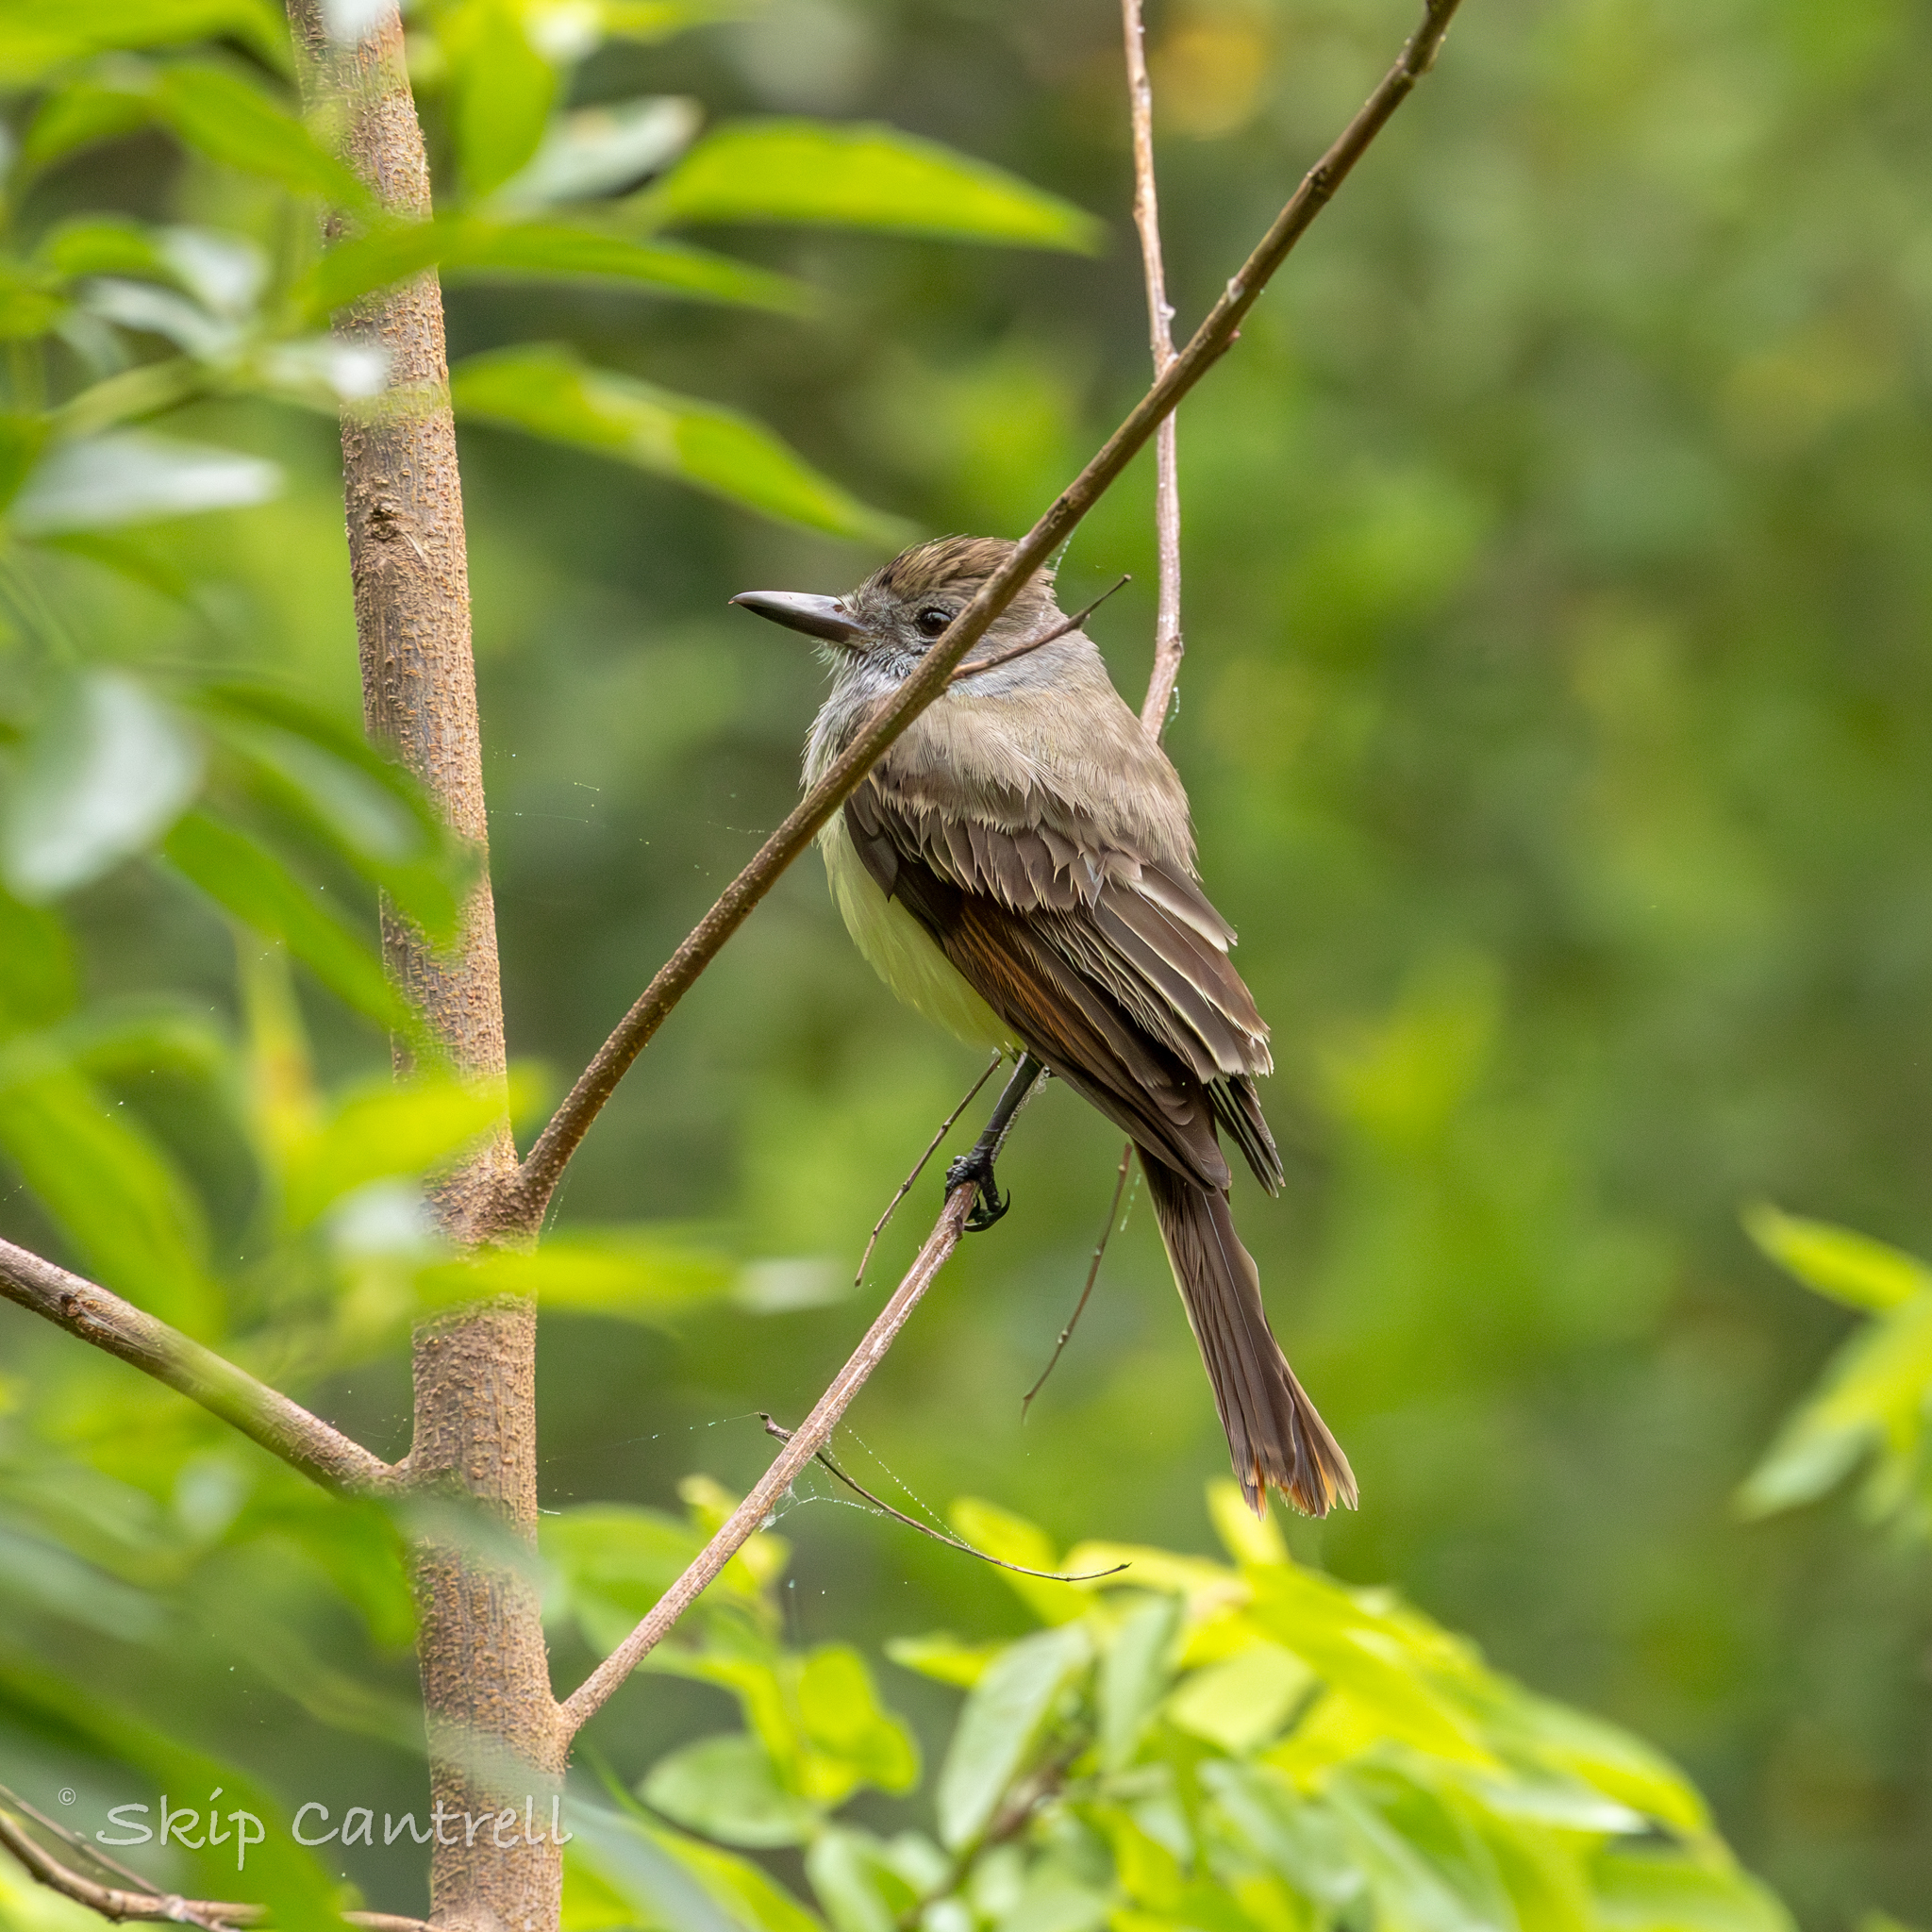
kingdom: Animalia
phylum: Chordata
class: Aves
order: Passeriformes
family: Tyrannidae
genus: Myiarchus
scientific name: Myiarchus tyrannulus
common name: Brown-crested flycatcher
